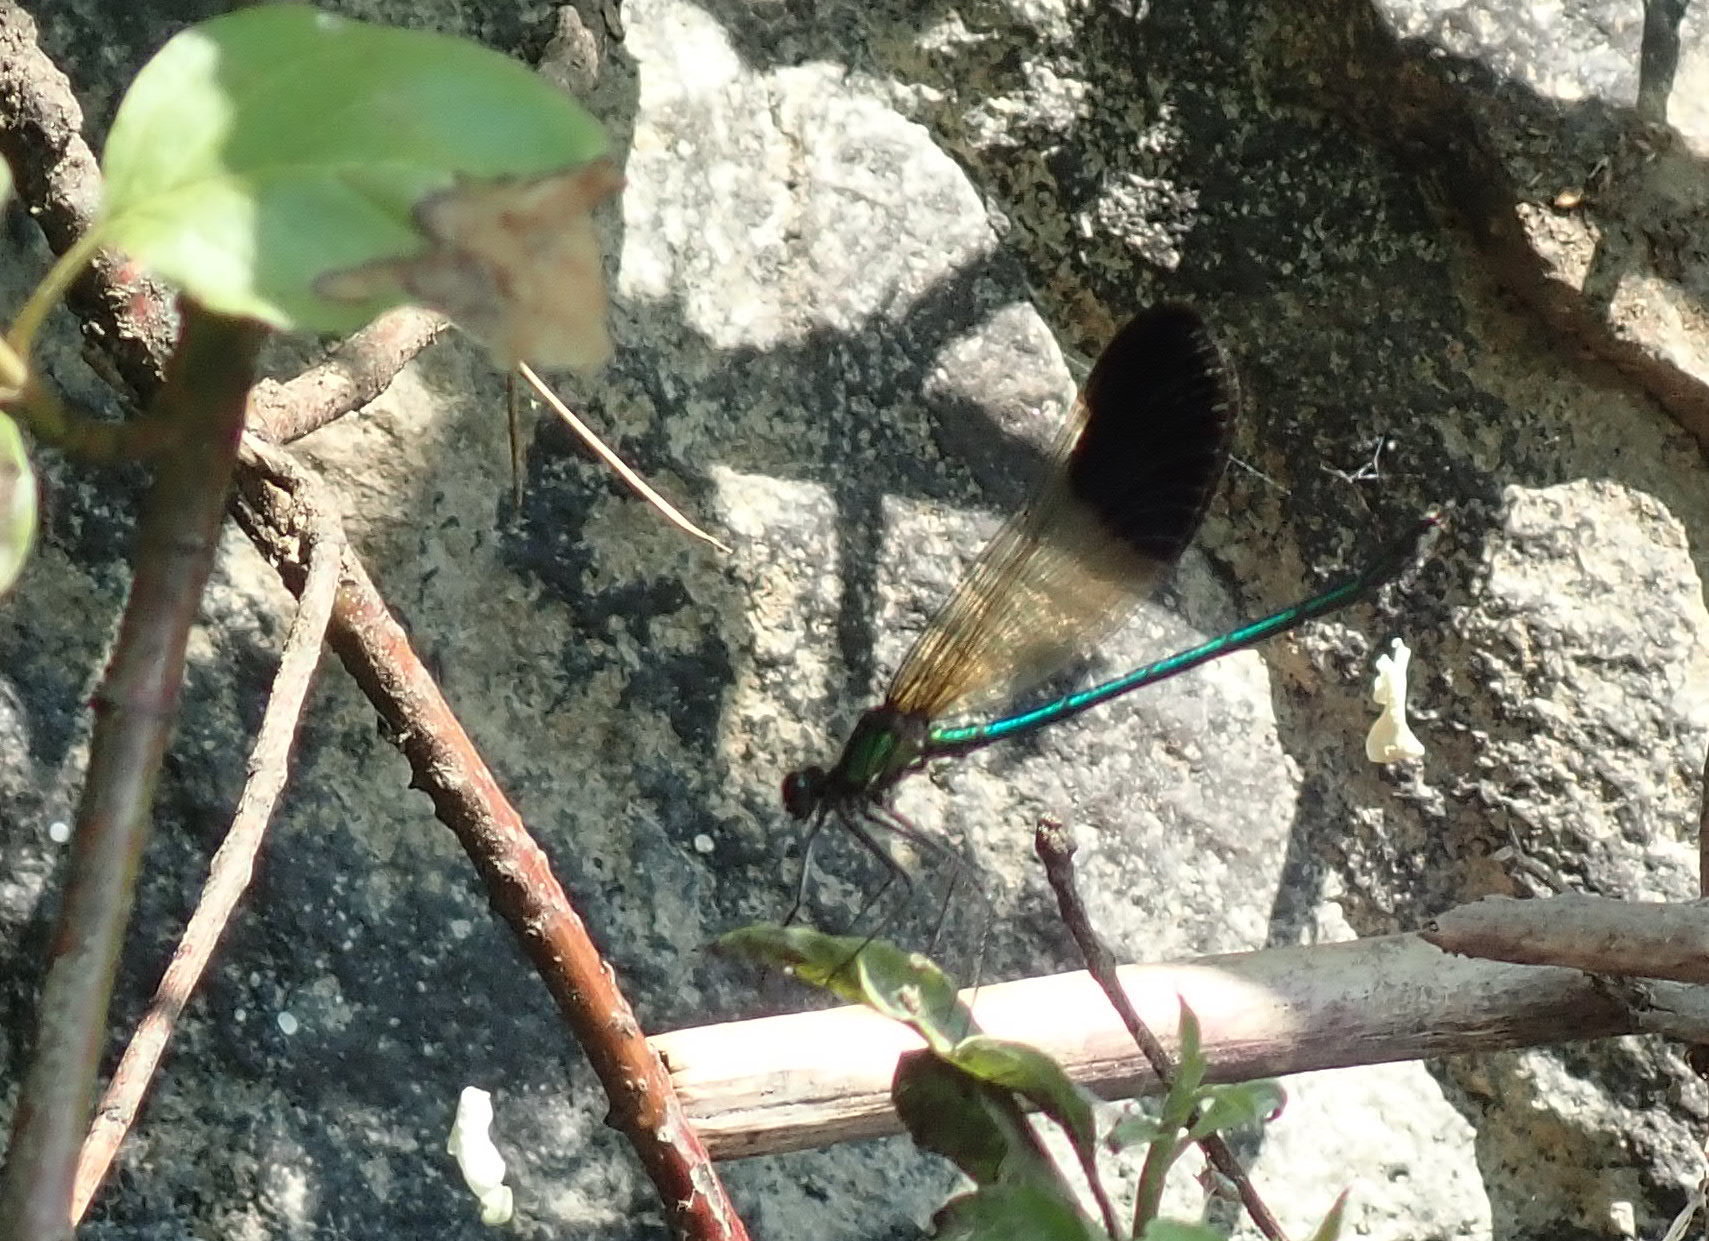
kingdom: Animalia
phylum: Arthropoda
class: Insecta
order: Odonata
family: Calopterygidae
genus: Calopteryx
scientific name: Calopteryx aequabilis
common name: River jewelwing
